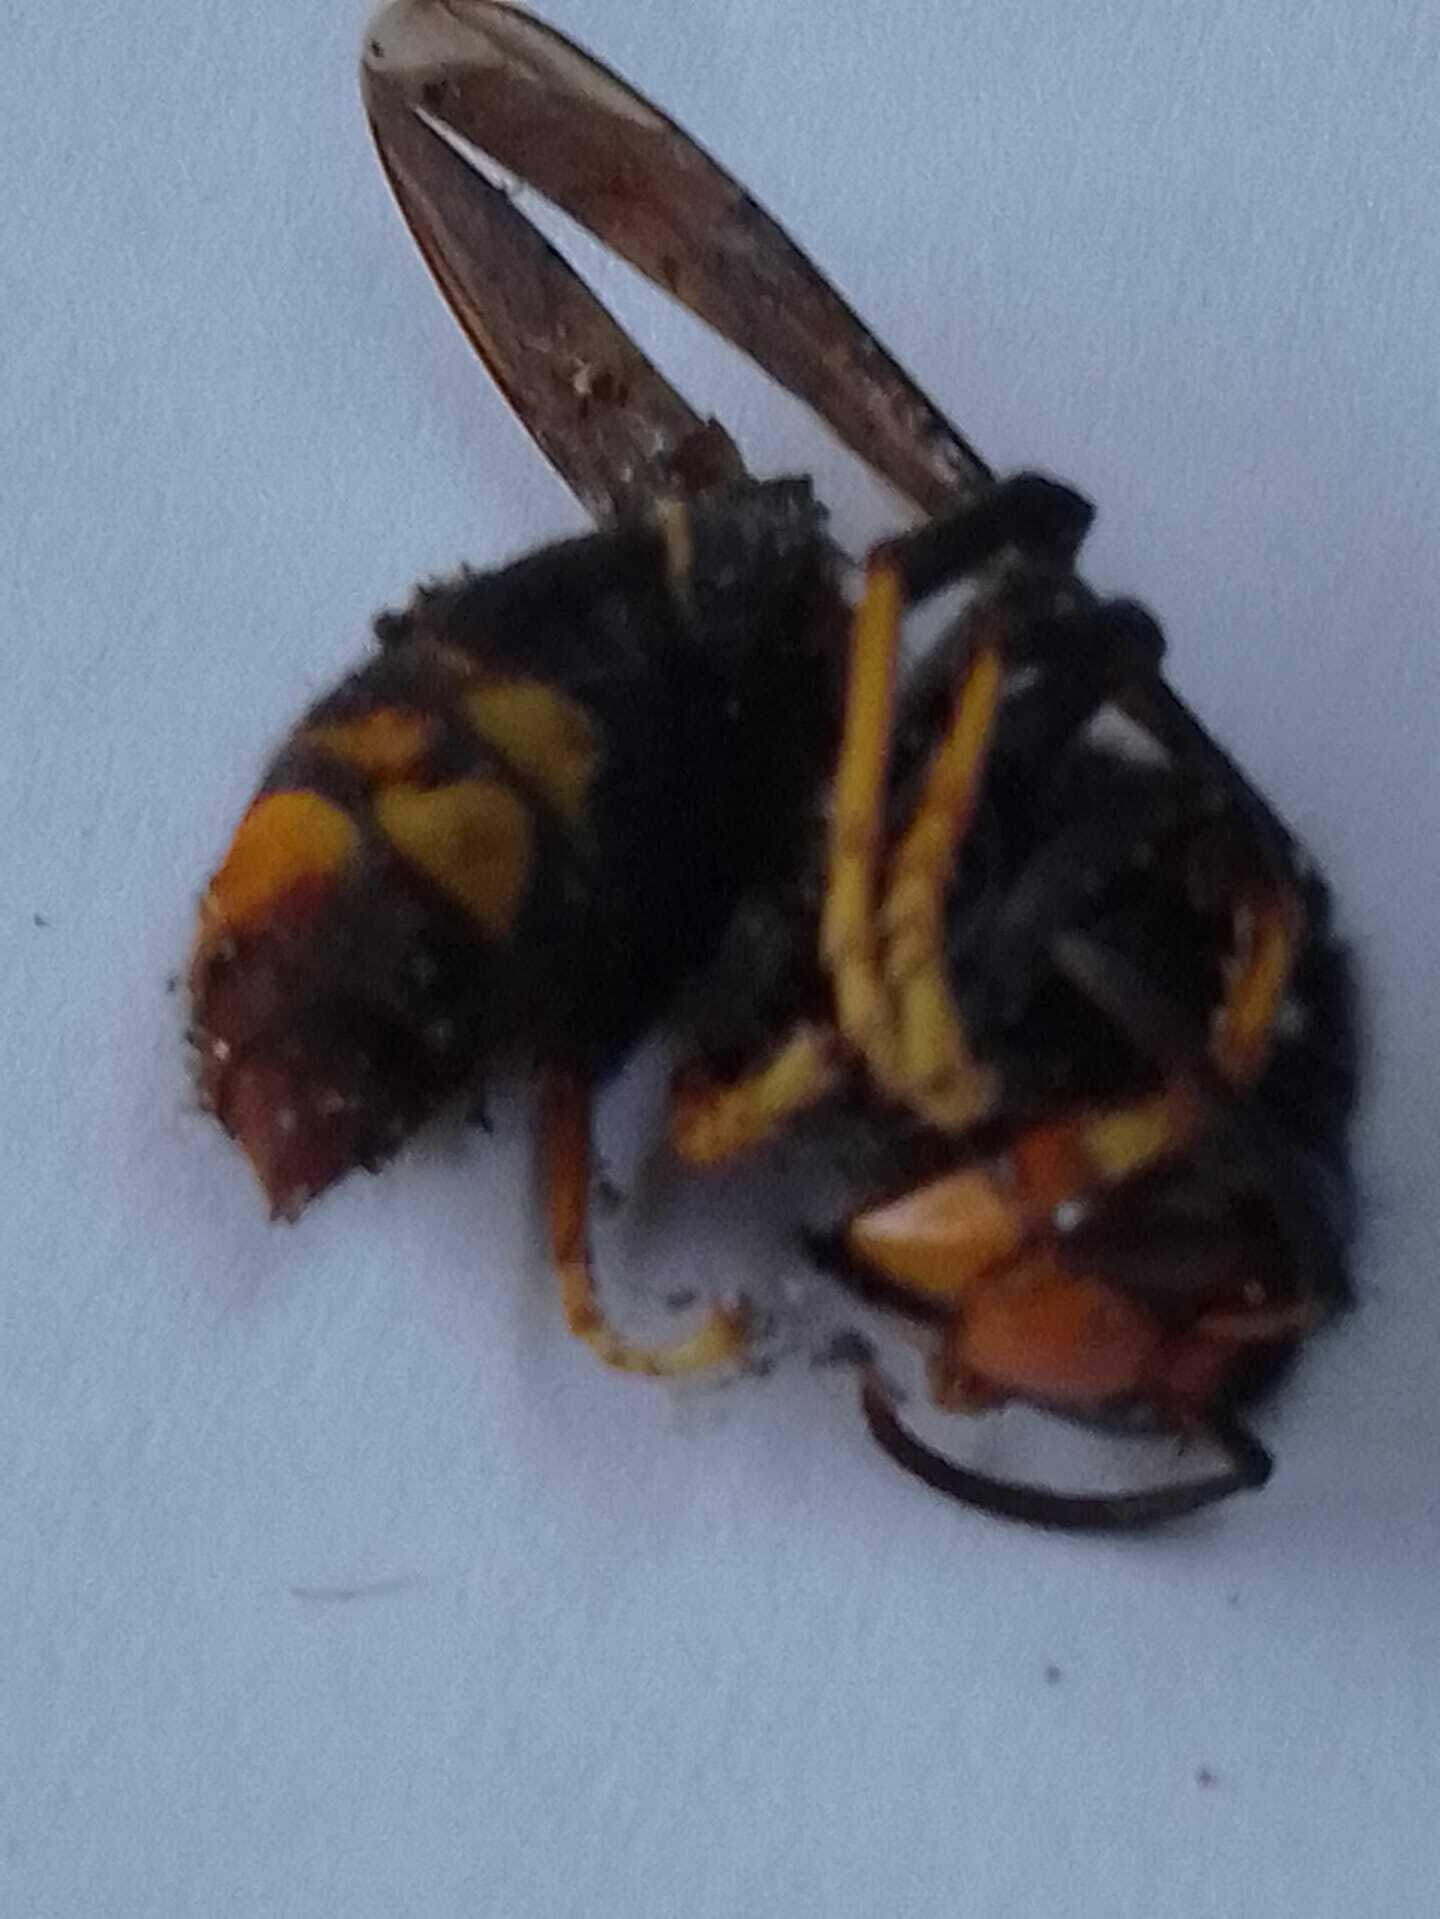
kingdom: Animalia
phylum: Arthropoda
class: Insecta
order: Hymenoptera
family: Vespidae
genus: Vespa
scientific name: Vespa velutina
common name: Asian hornet
